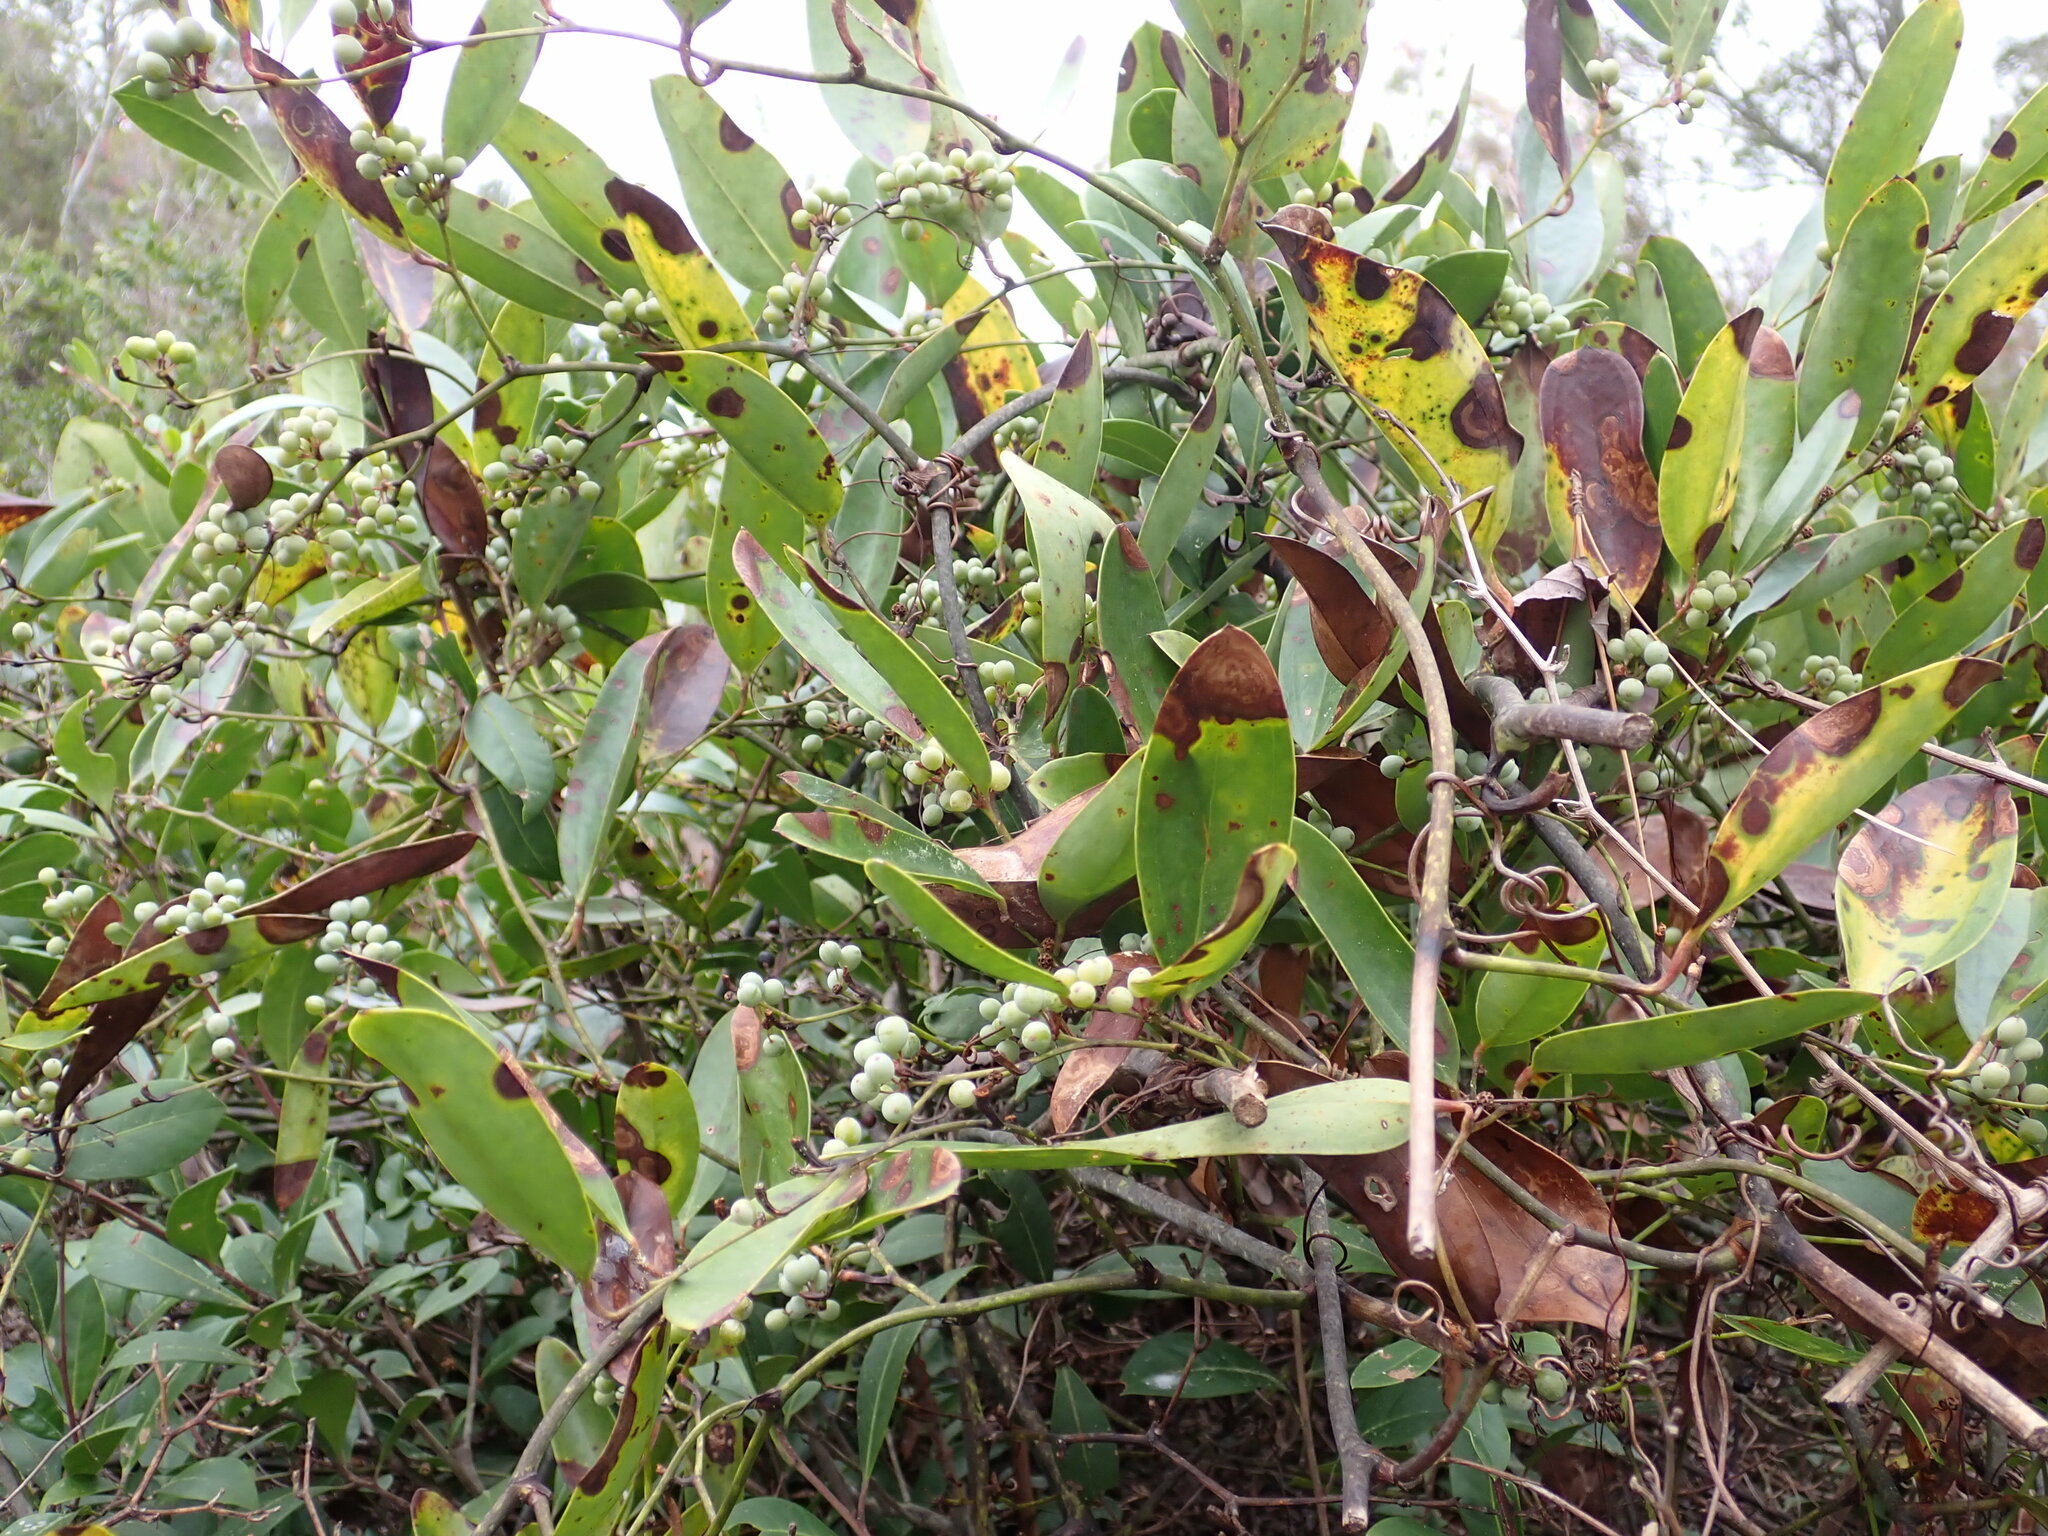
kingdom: Plantae
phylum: Tracheophyta
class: Liliopsida
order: Liliales
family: Smilacaceae
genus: Smilax
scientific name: Smilax laurifolia
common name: Bamboovine
